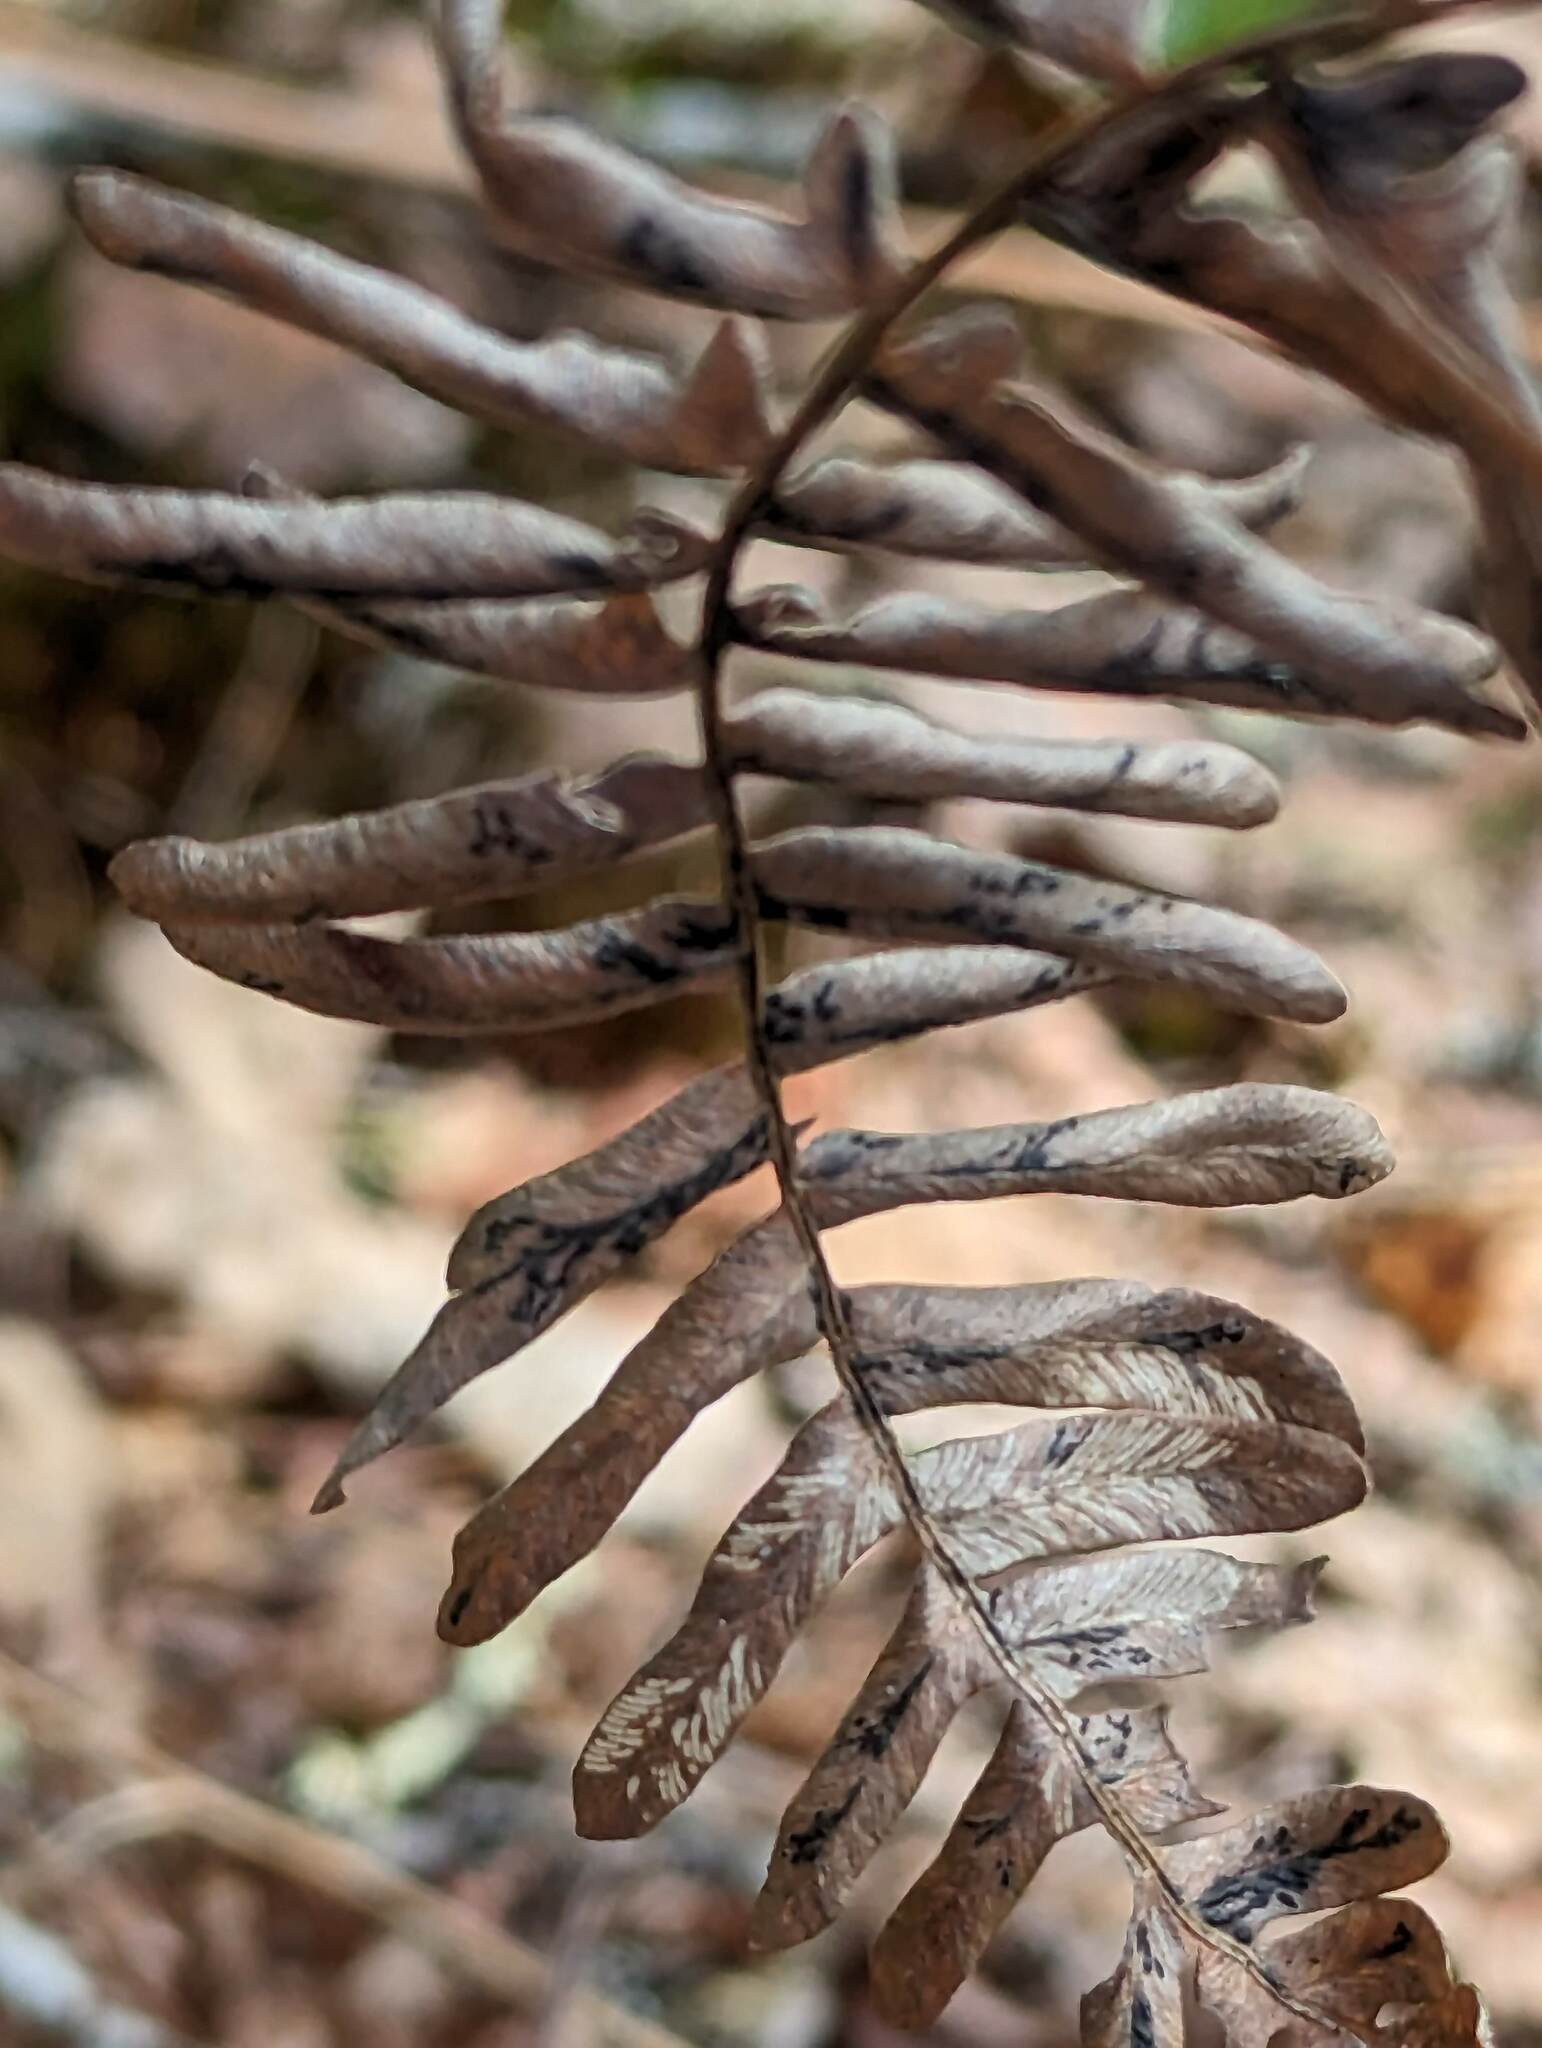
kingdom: Plantae
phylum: Tracheophyta
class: Polypodiopsida
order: Polypodiales
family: Dennstaedtiaceae
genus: Pteridium
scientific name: Pteridium aquilinum
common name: Bracken
